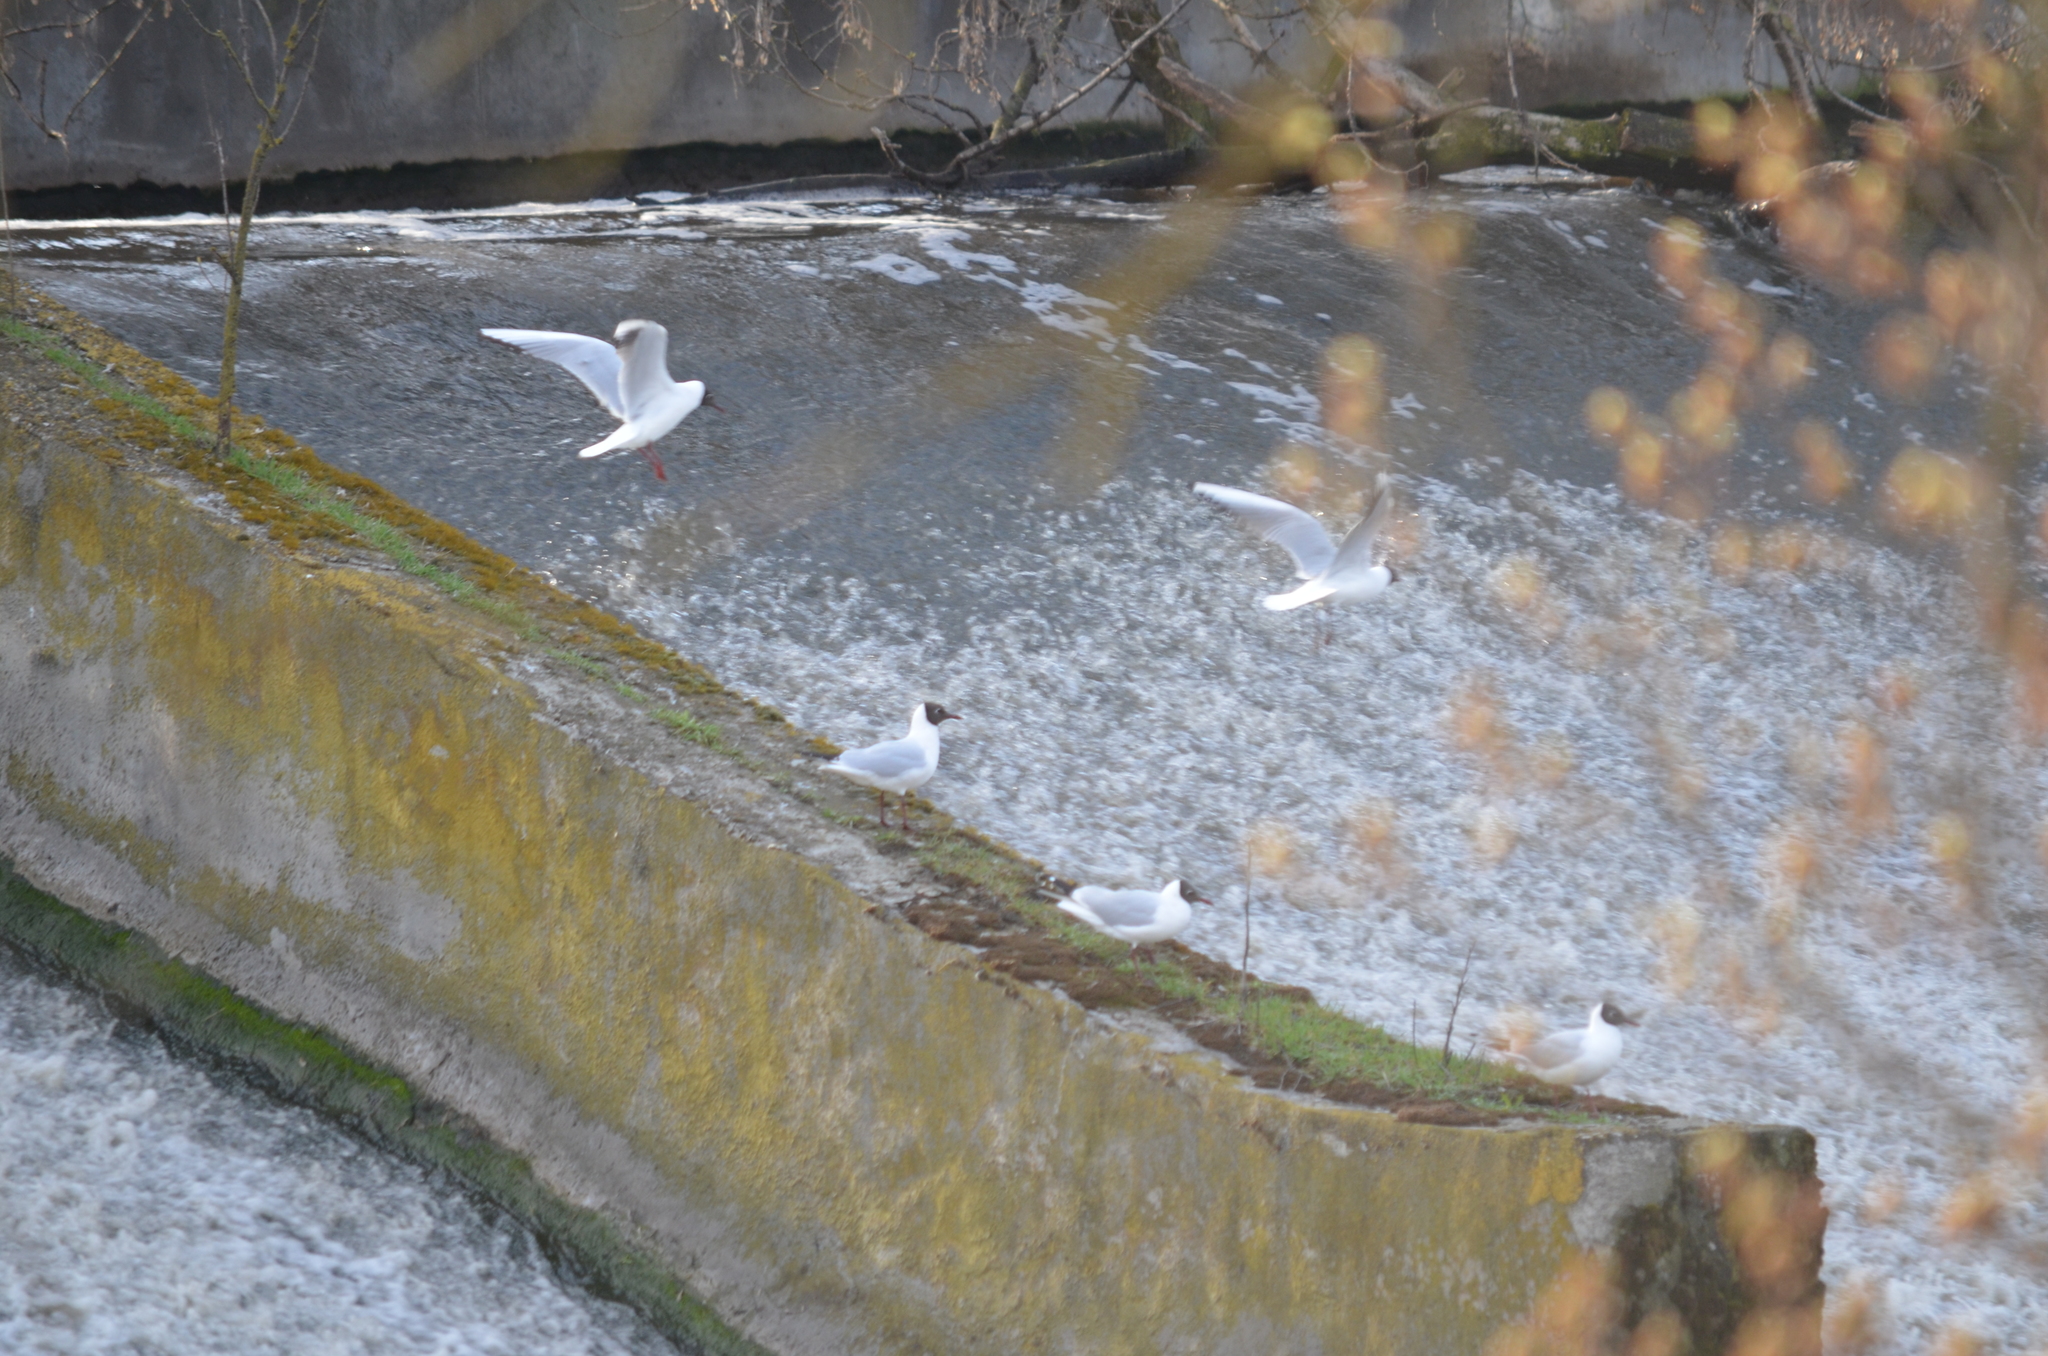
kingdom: Animalia
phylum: Chordata
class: Aves
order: Charadriiformes
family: Laridae
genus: Chroicocephalus
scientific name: Chroicocephalus ridibundus
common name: Black-headed gull
